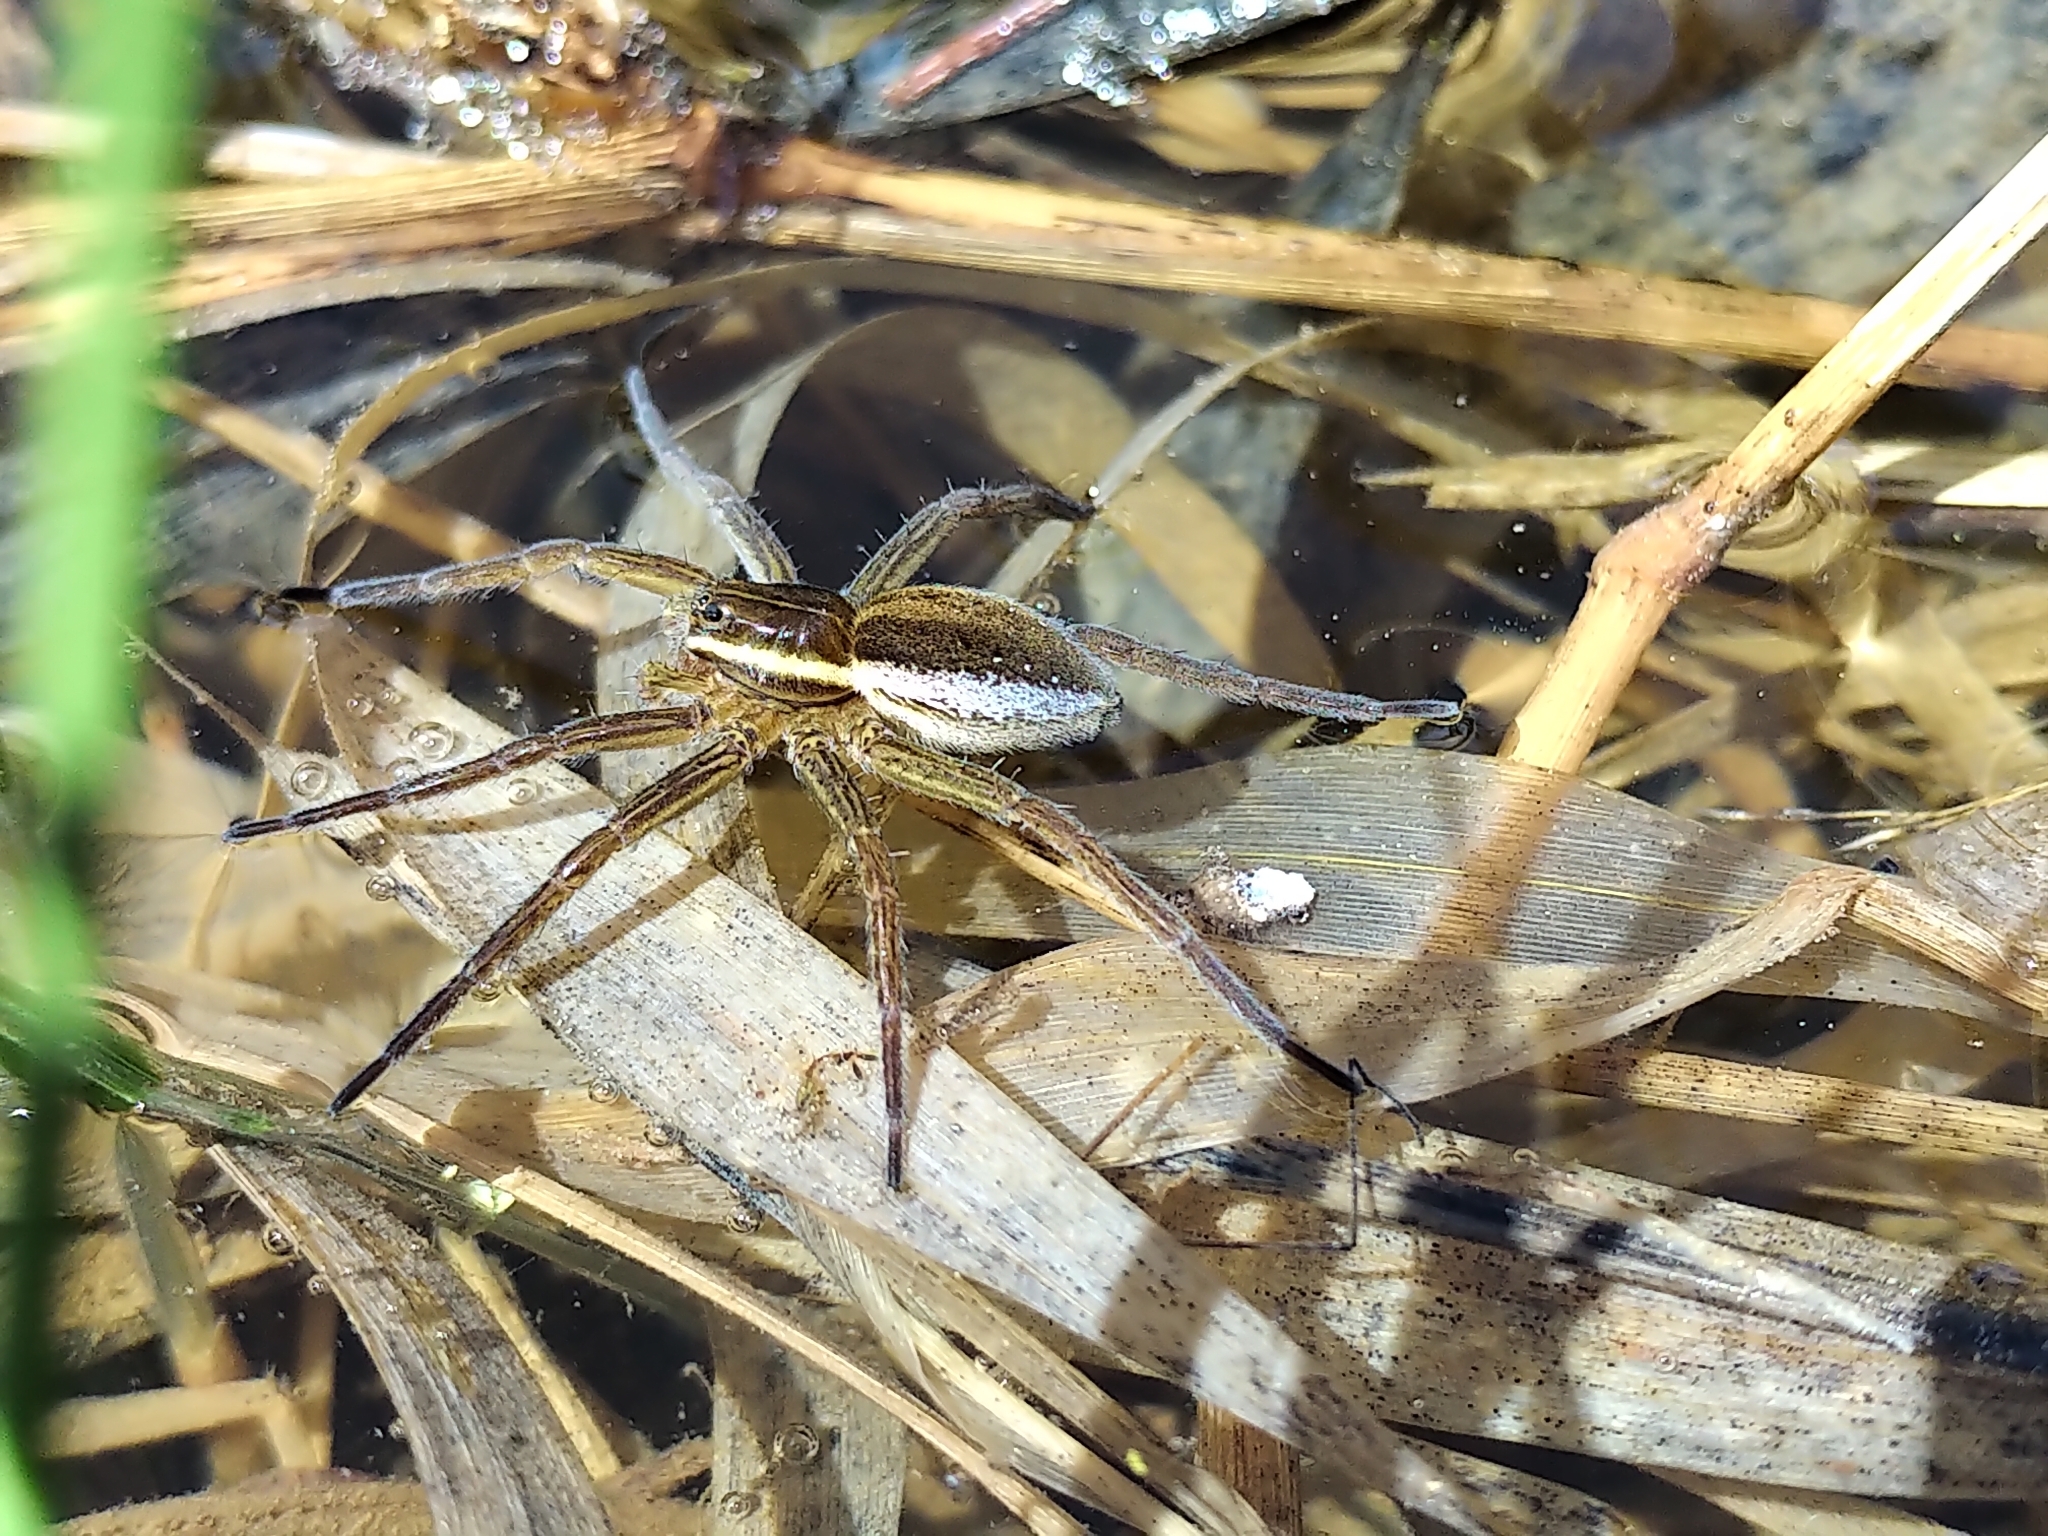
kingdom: Animalia
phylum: Arthropoda
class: Arachnida
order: Araneae
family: Pisauridae
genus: Dolomedes
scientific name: Dolomedes triton
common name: Six-spotted fishing spider
